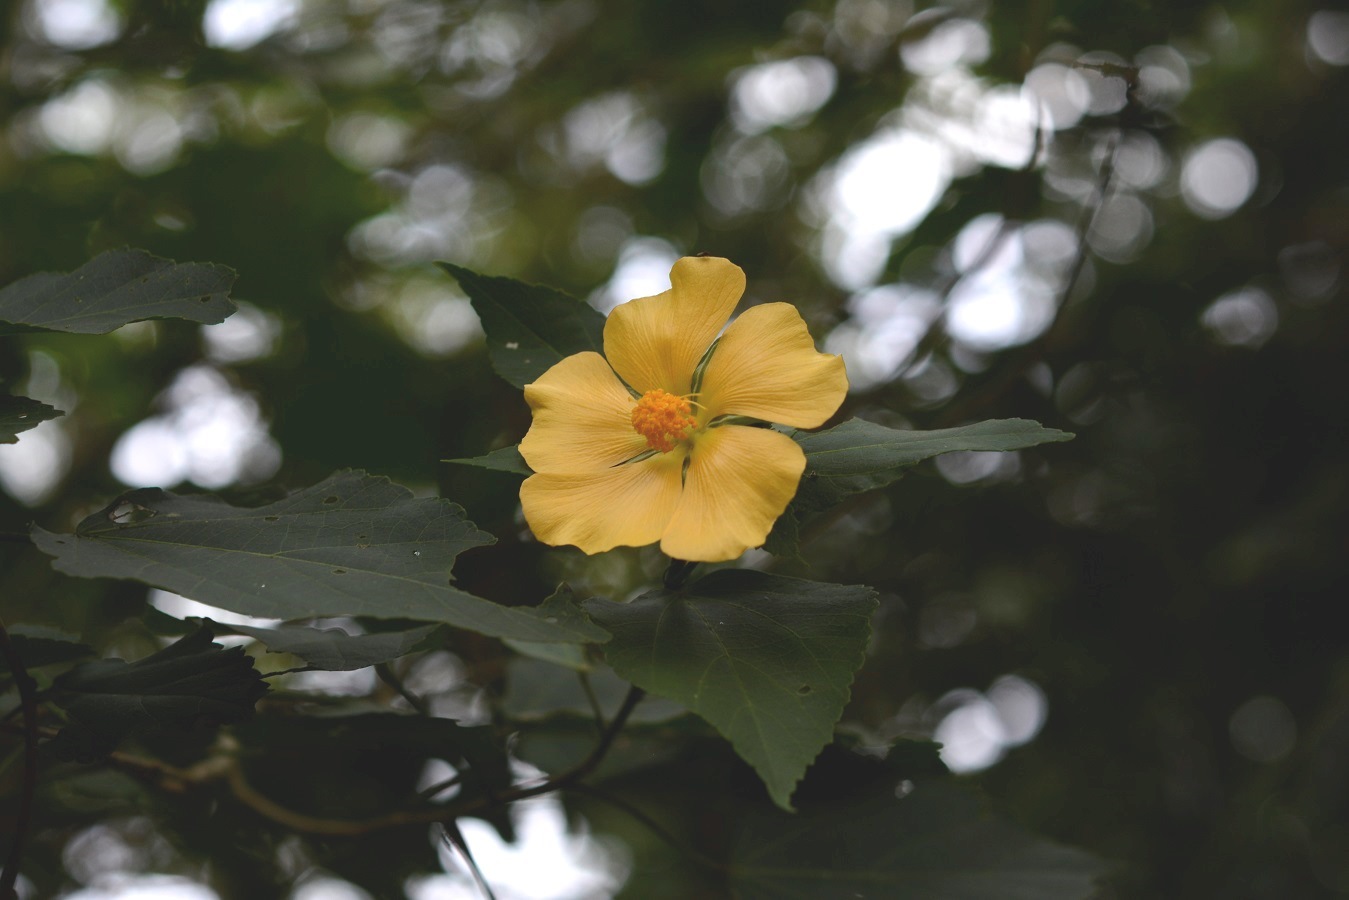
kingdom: Plantae
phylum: Tracheophyta
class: Magnoliopsida
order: Malvales
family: Malvaceae
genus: Dendrosida
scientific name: Dendrosida sharpiana
